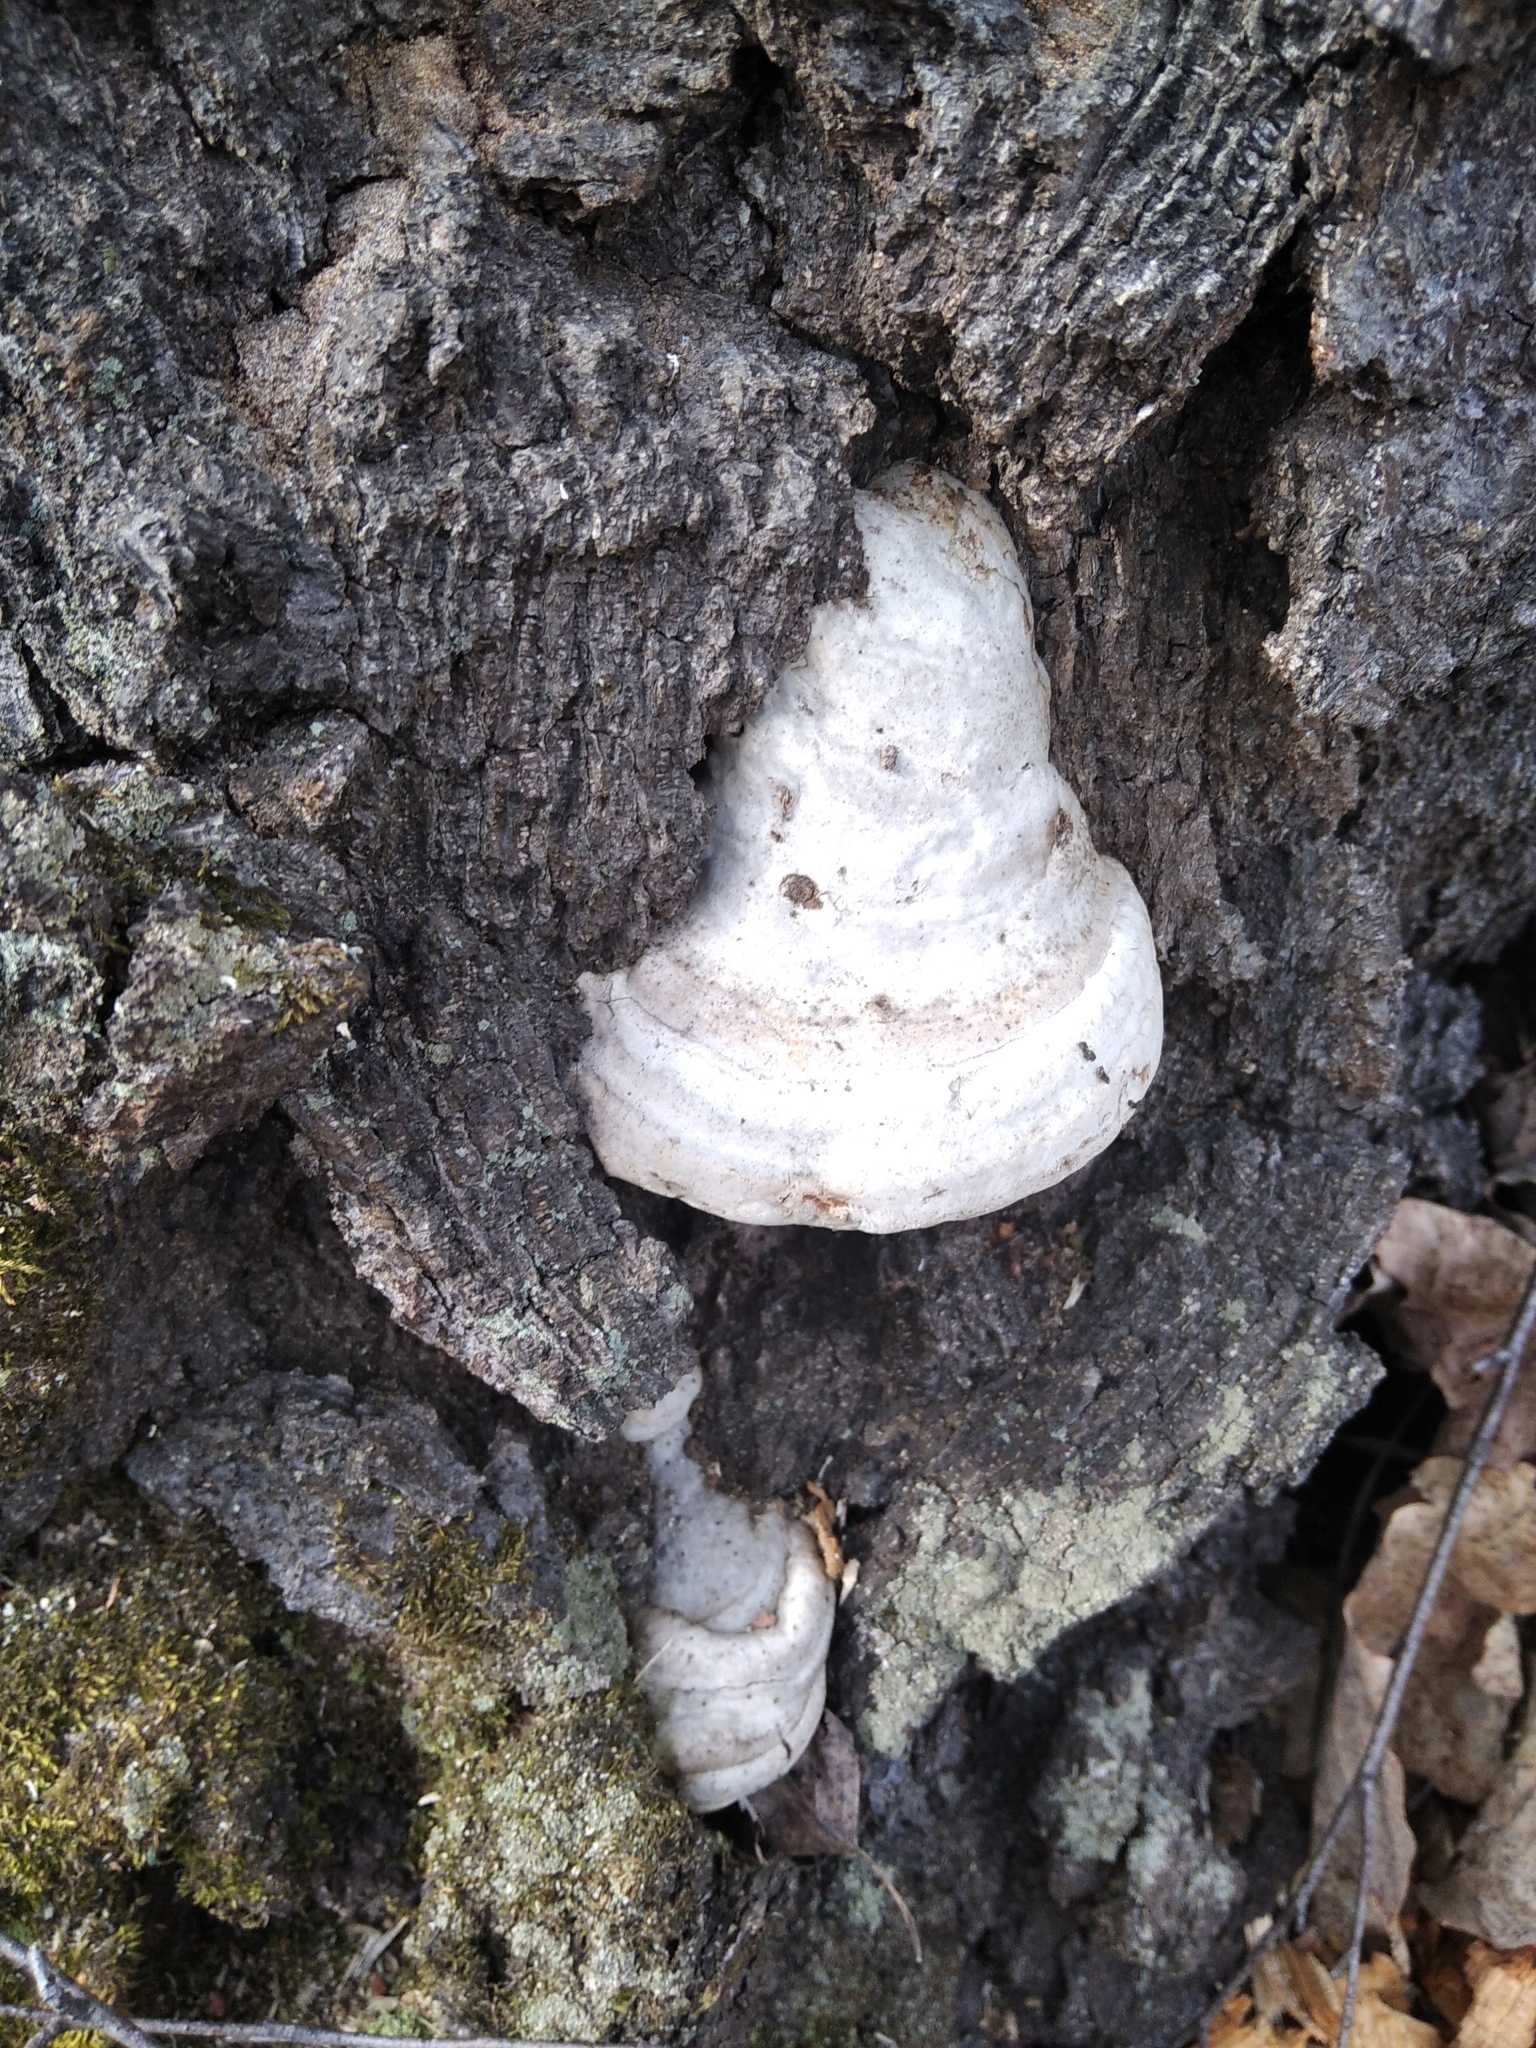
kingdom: Fungi
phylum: Basidiomycota
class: Agaricomycetes
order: Polyporales
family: Polyporaceae
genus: Fomes
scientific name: Fomes fomentarius
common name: Hoof fungus
